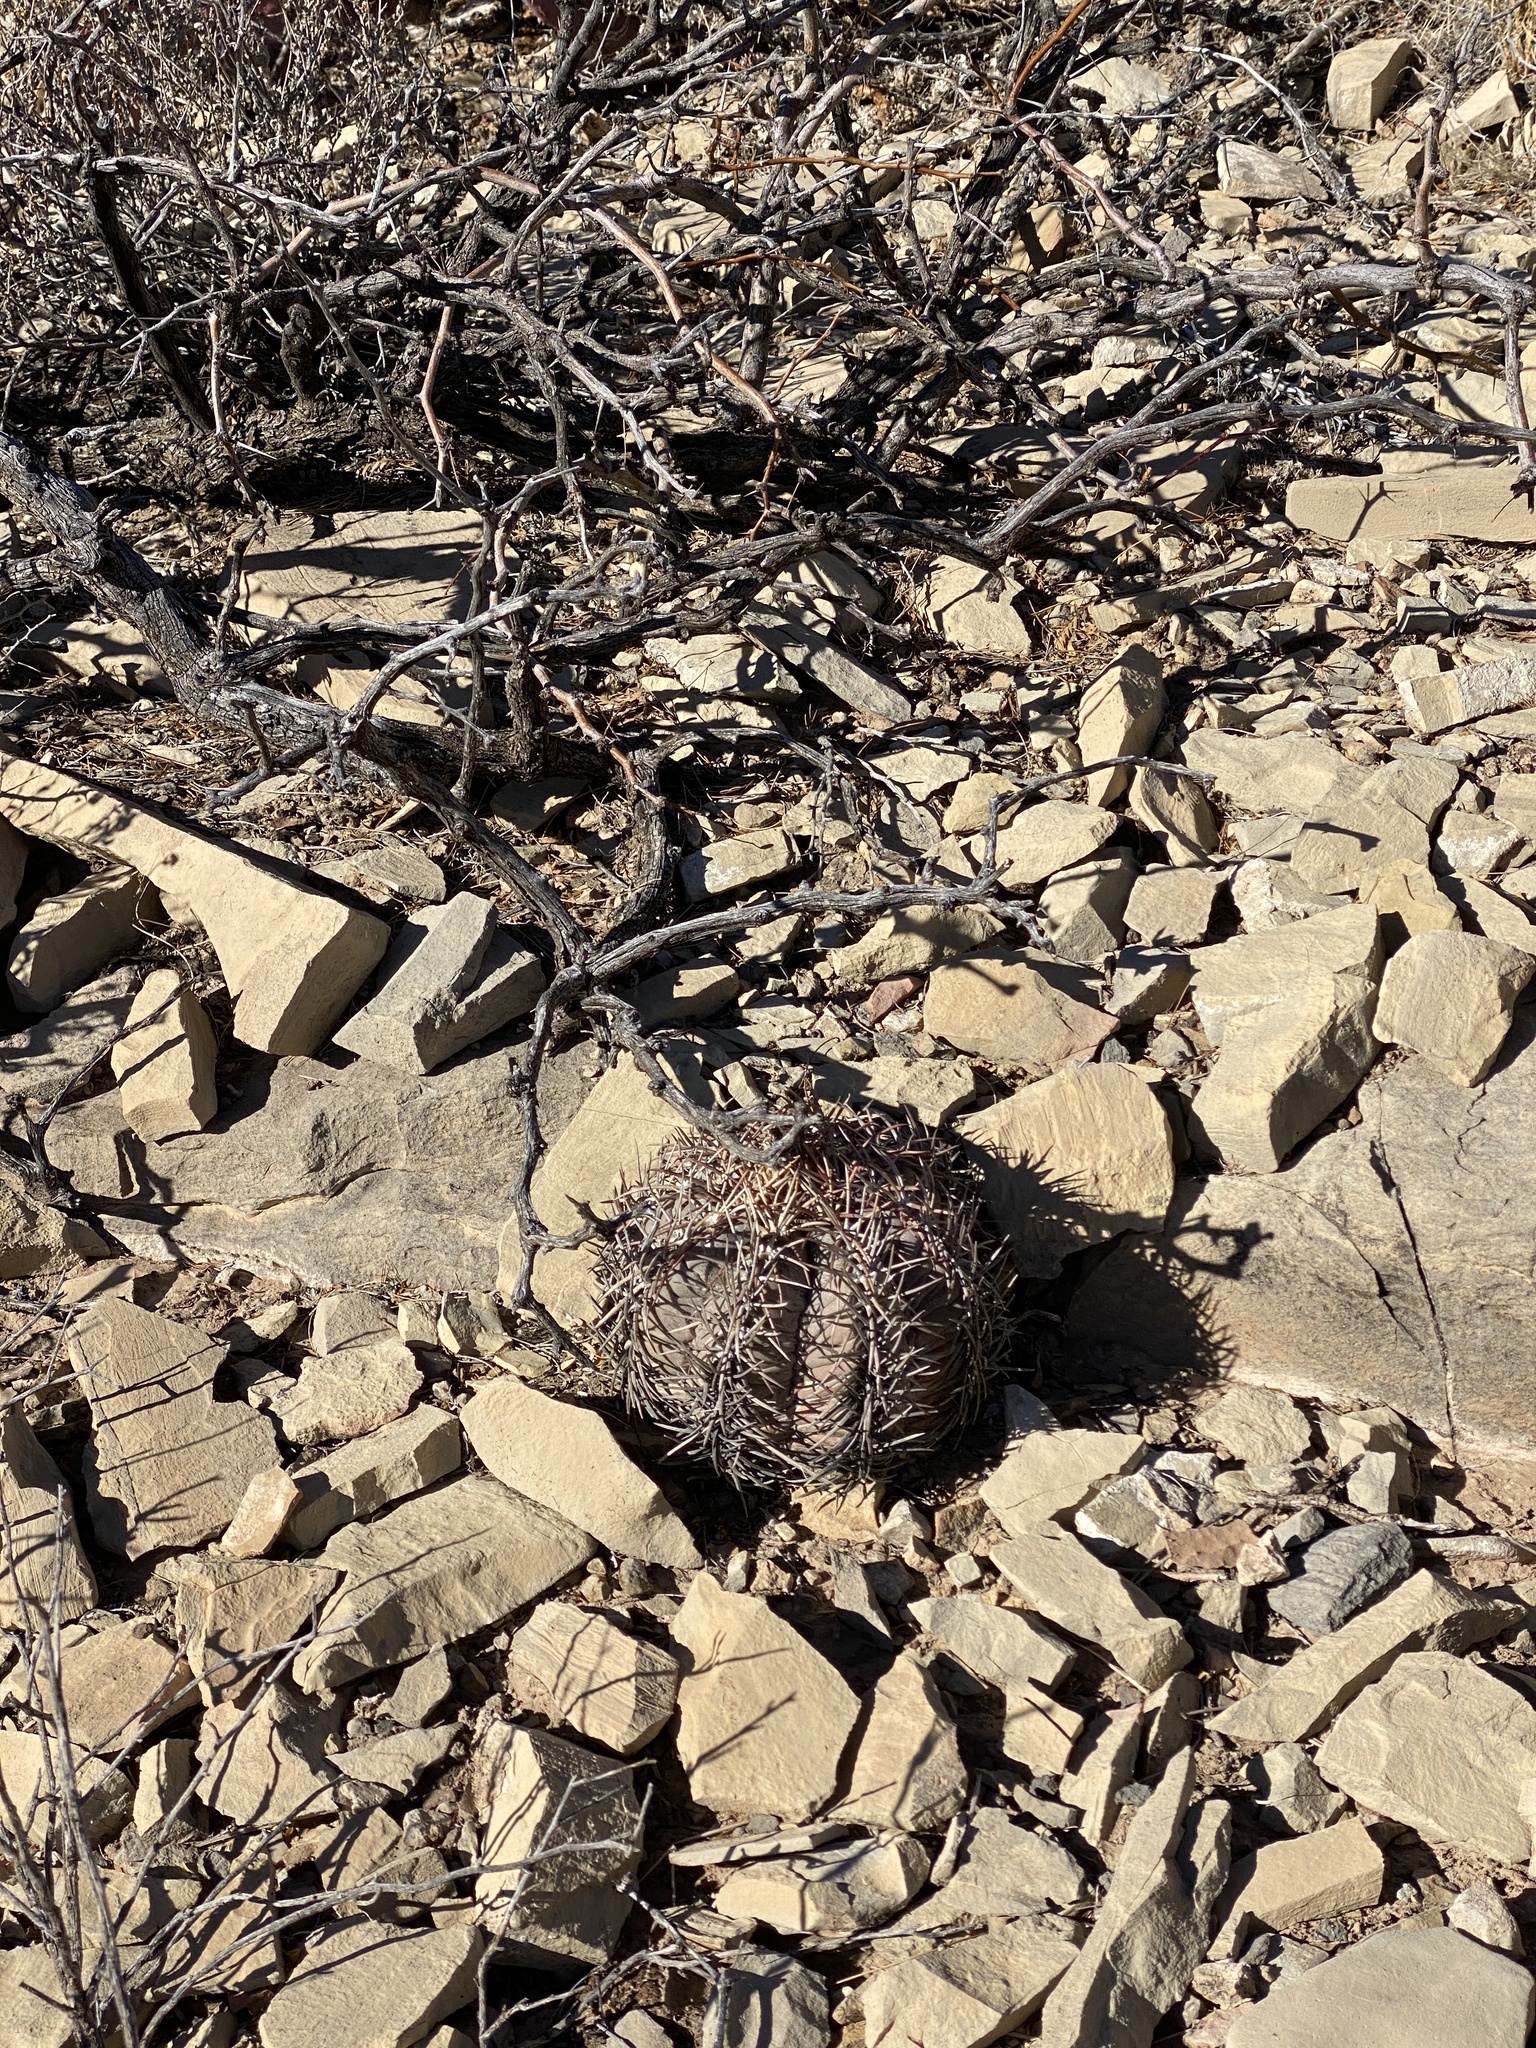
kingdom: Plantae
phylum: Tracheophyta
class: Magnoliopsida
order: Caryophyllales
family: Cactaceae
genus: Echinocactus
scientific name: Echinocactus horizonthalonius
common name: Devilshead
